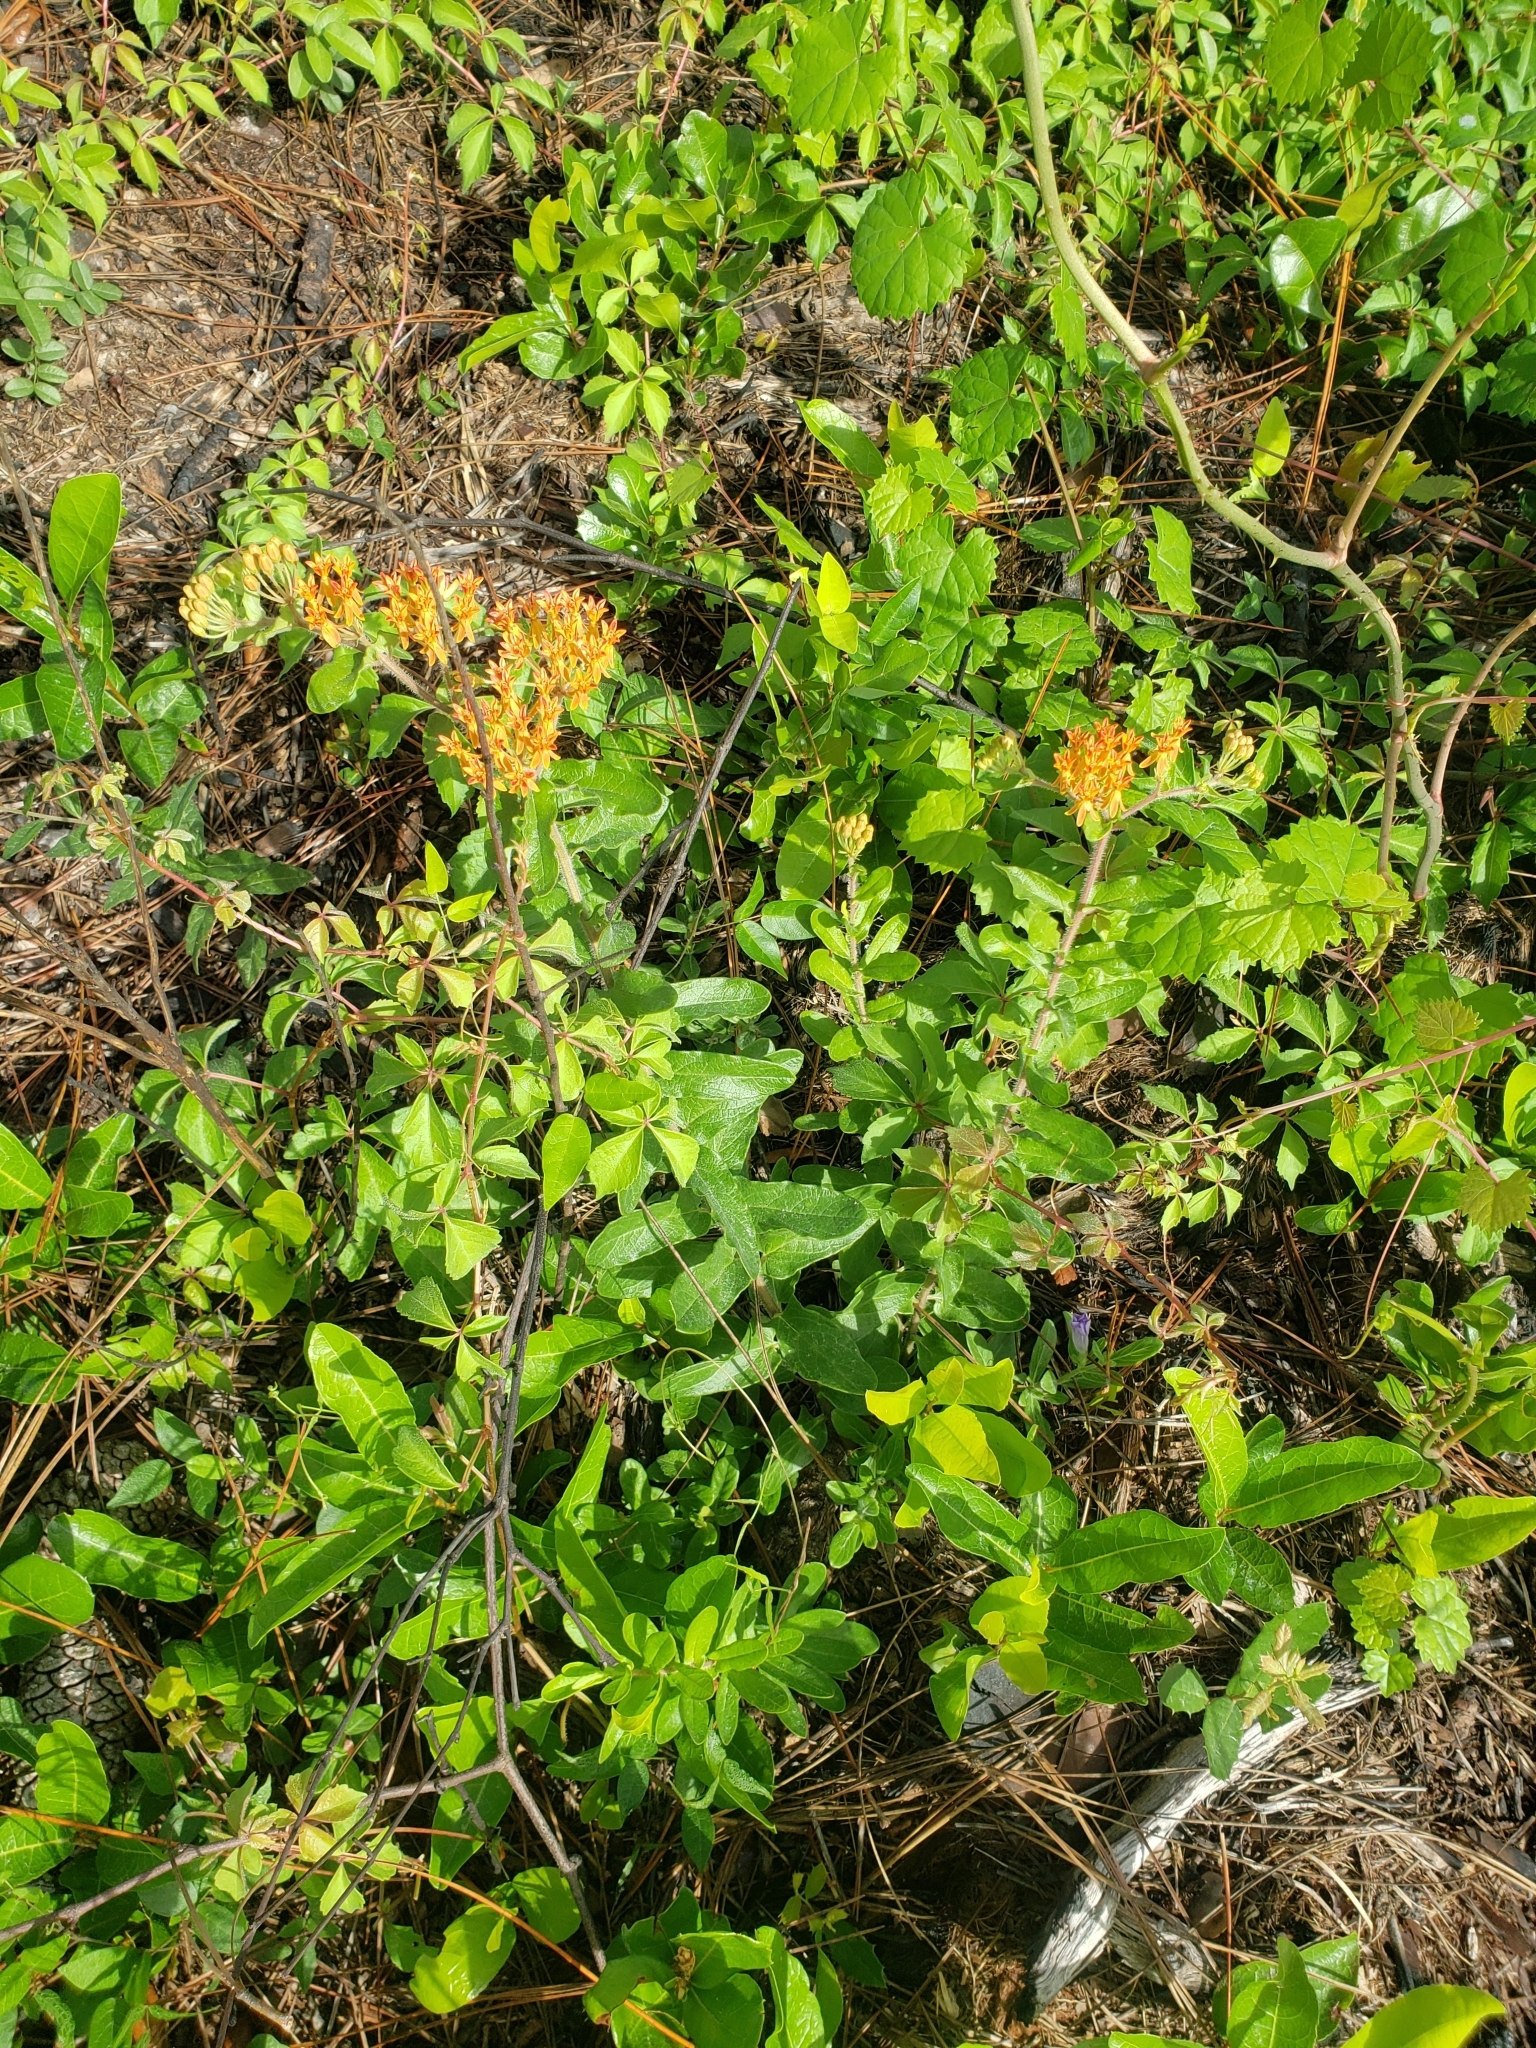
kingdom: Plantae
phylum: Tracheophyta
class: Magnoliopsida
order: Gentianales
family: Apocynaceae
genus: Asclepias
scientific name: Asclepias tuberosa
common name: Butterfly milkweed
